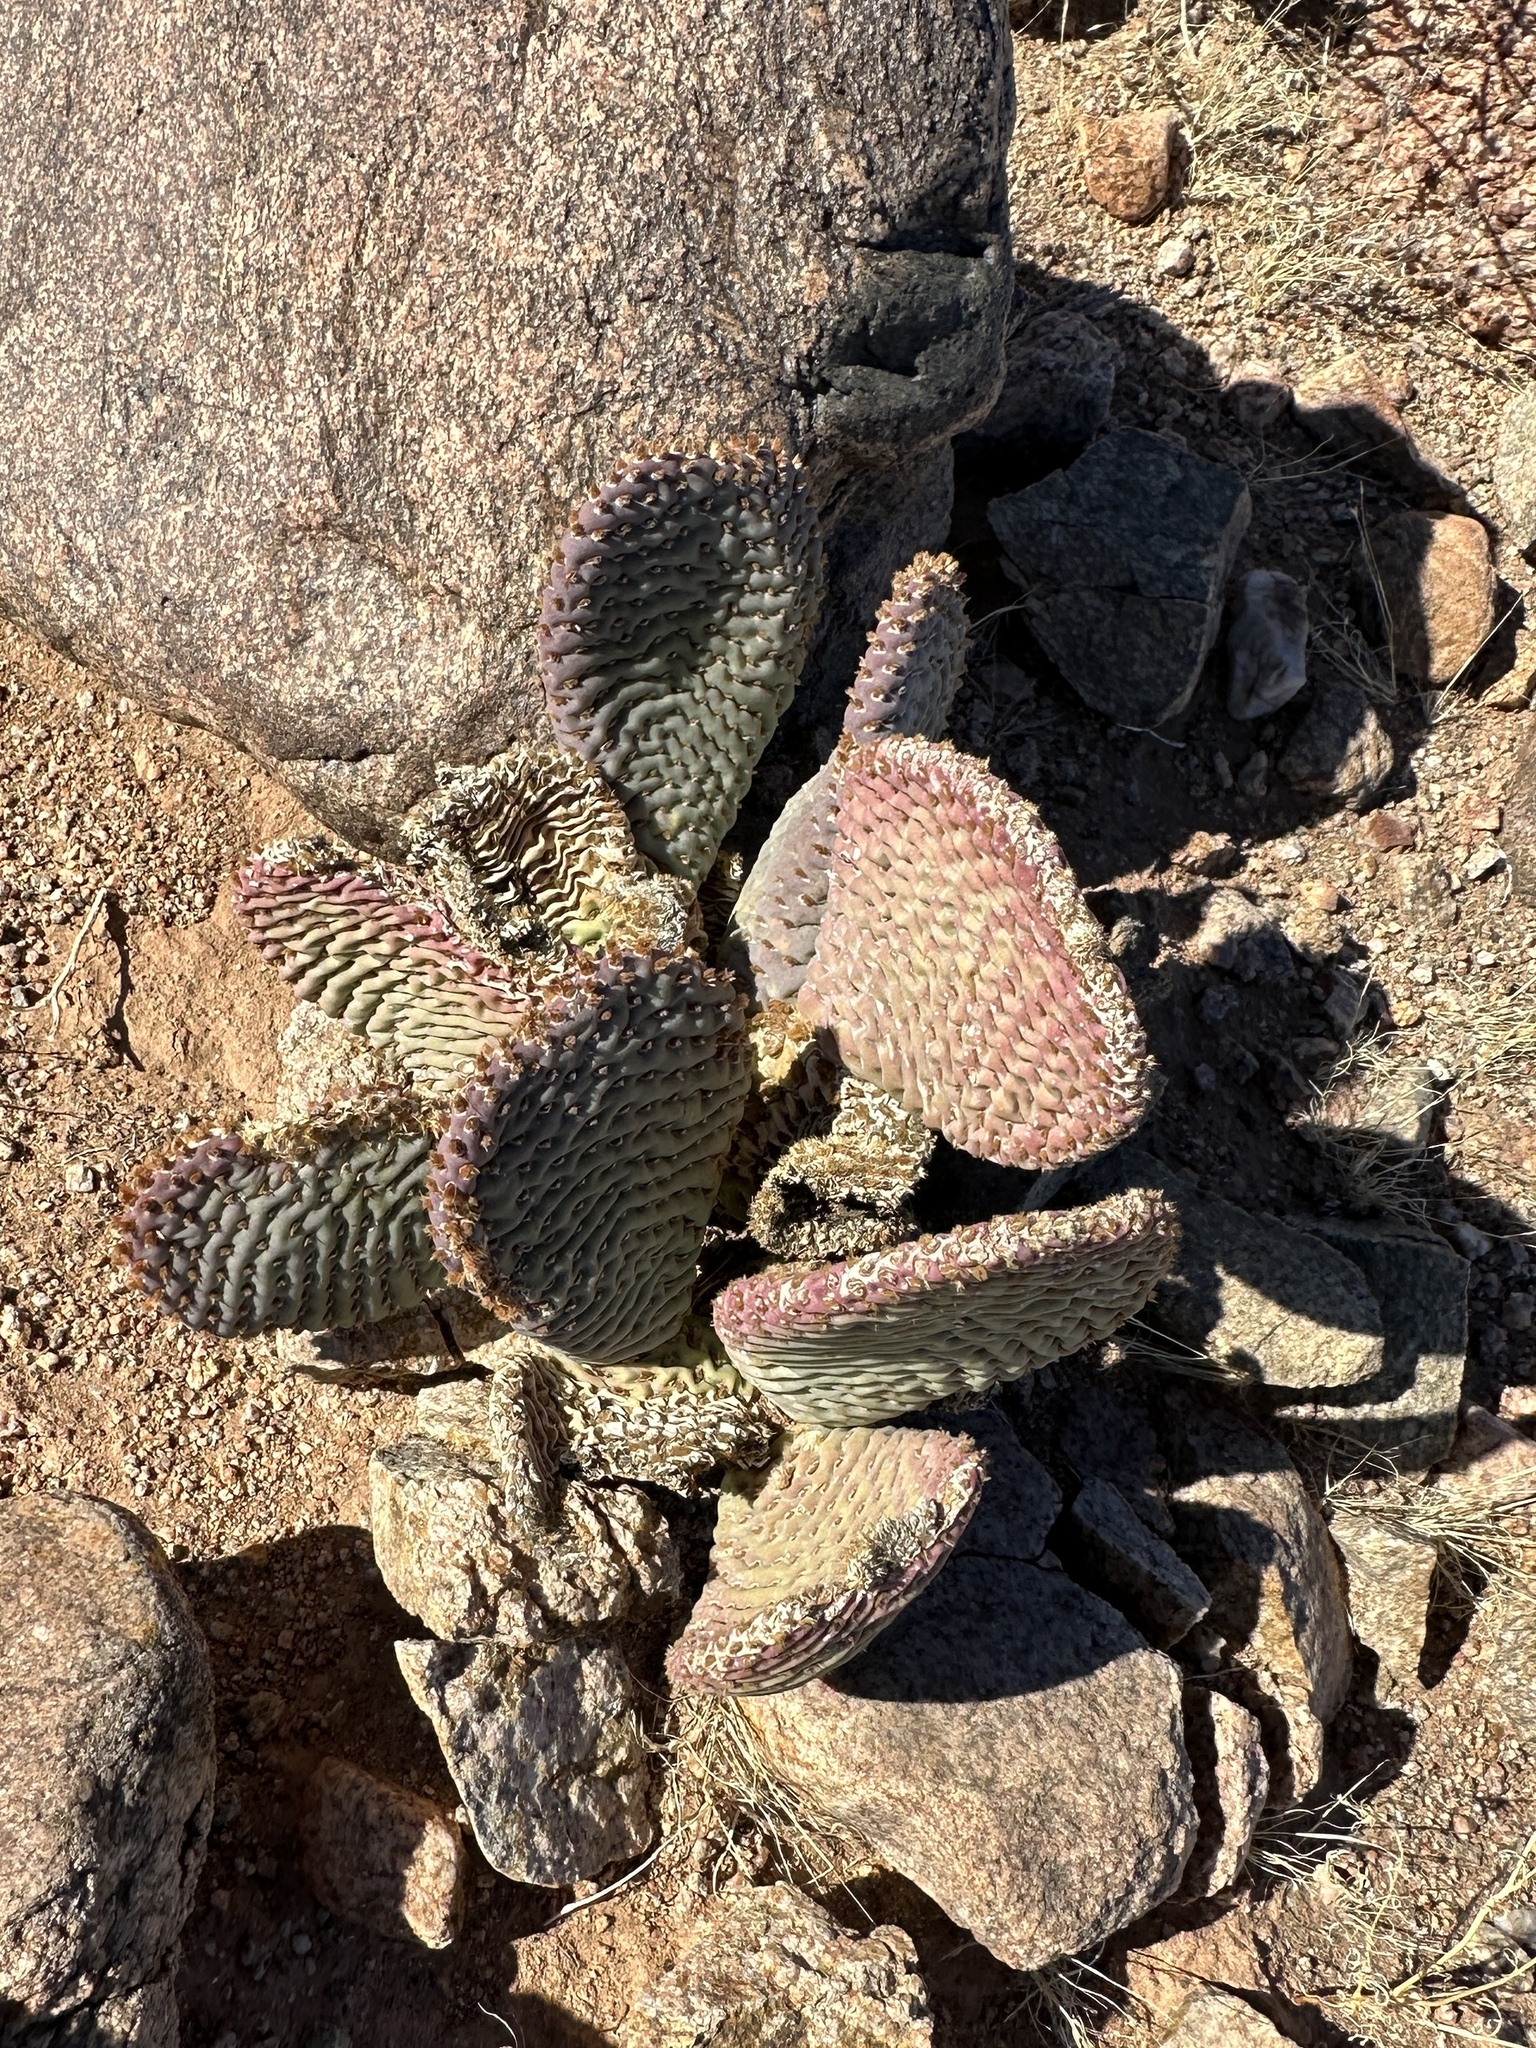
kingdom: Plantae
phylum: Tracheophyta
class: Magnoliopsida
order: Caryophyllales
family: Cactaceae
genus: Opuntia
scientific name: Opuntia basilaris
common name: Beavertail prickly-pear
